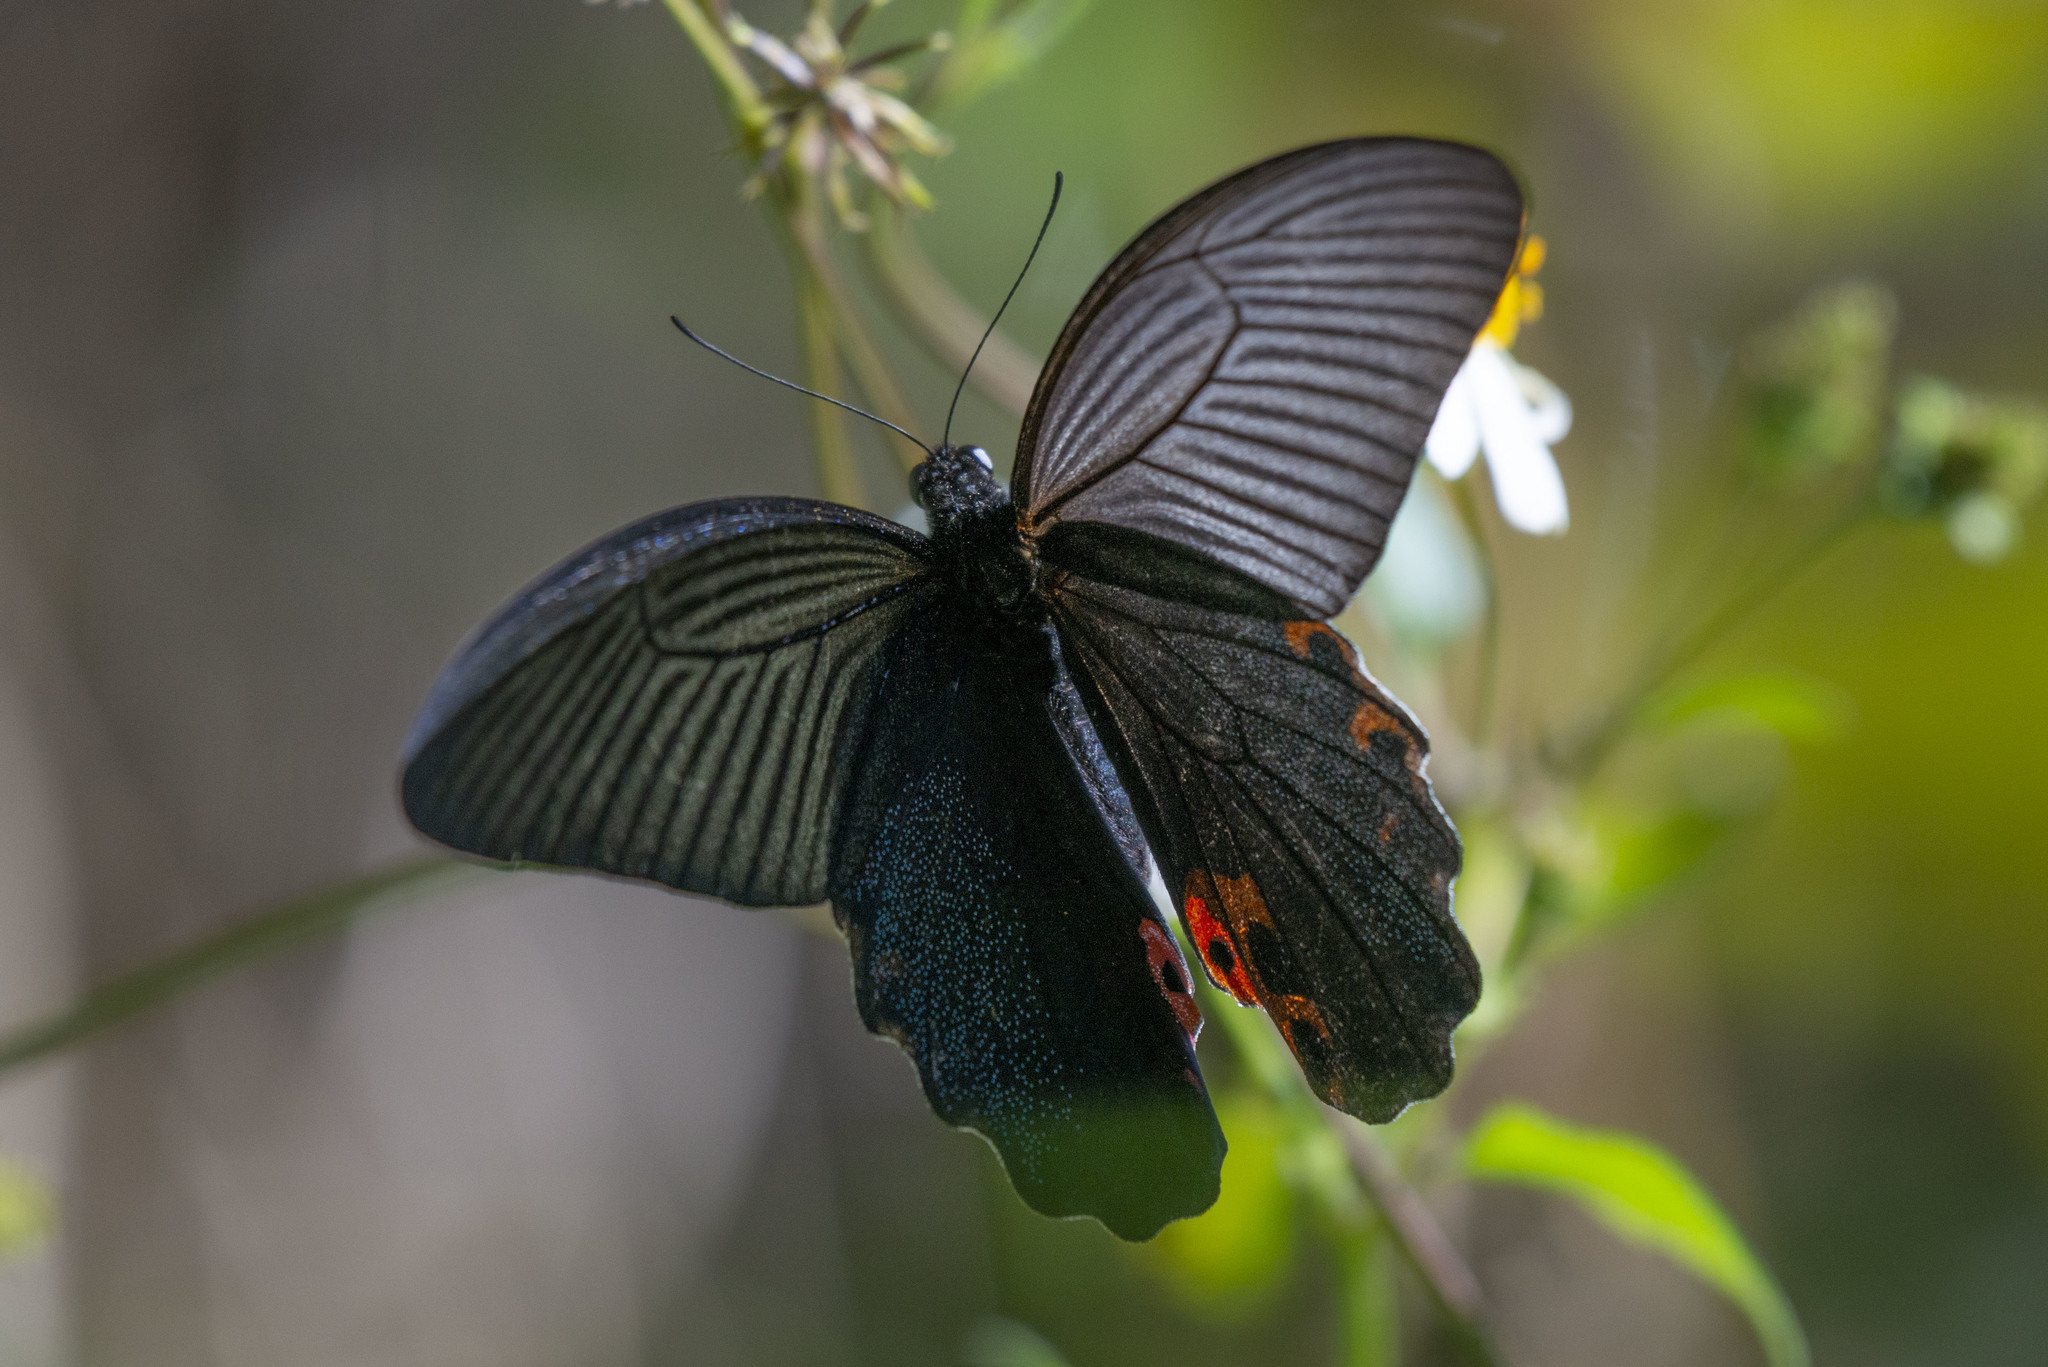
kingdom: Animalia
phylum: Arthropoda
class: Insecta
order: Lepidoptera
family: Papilionidae
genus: Papilio
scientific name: Papilio protenor
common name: Spangle
